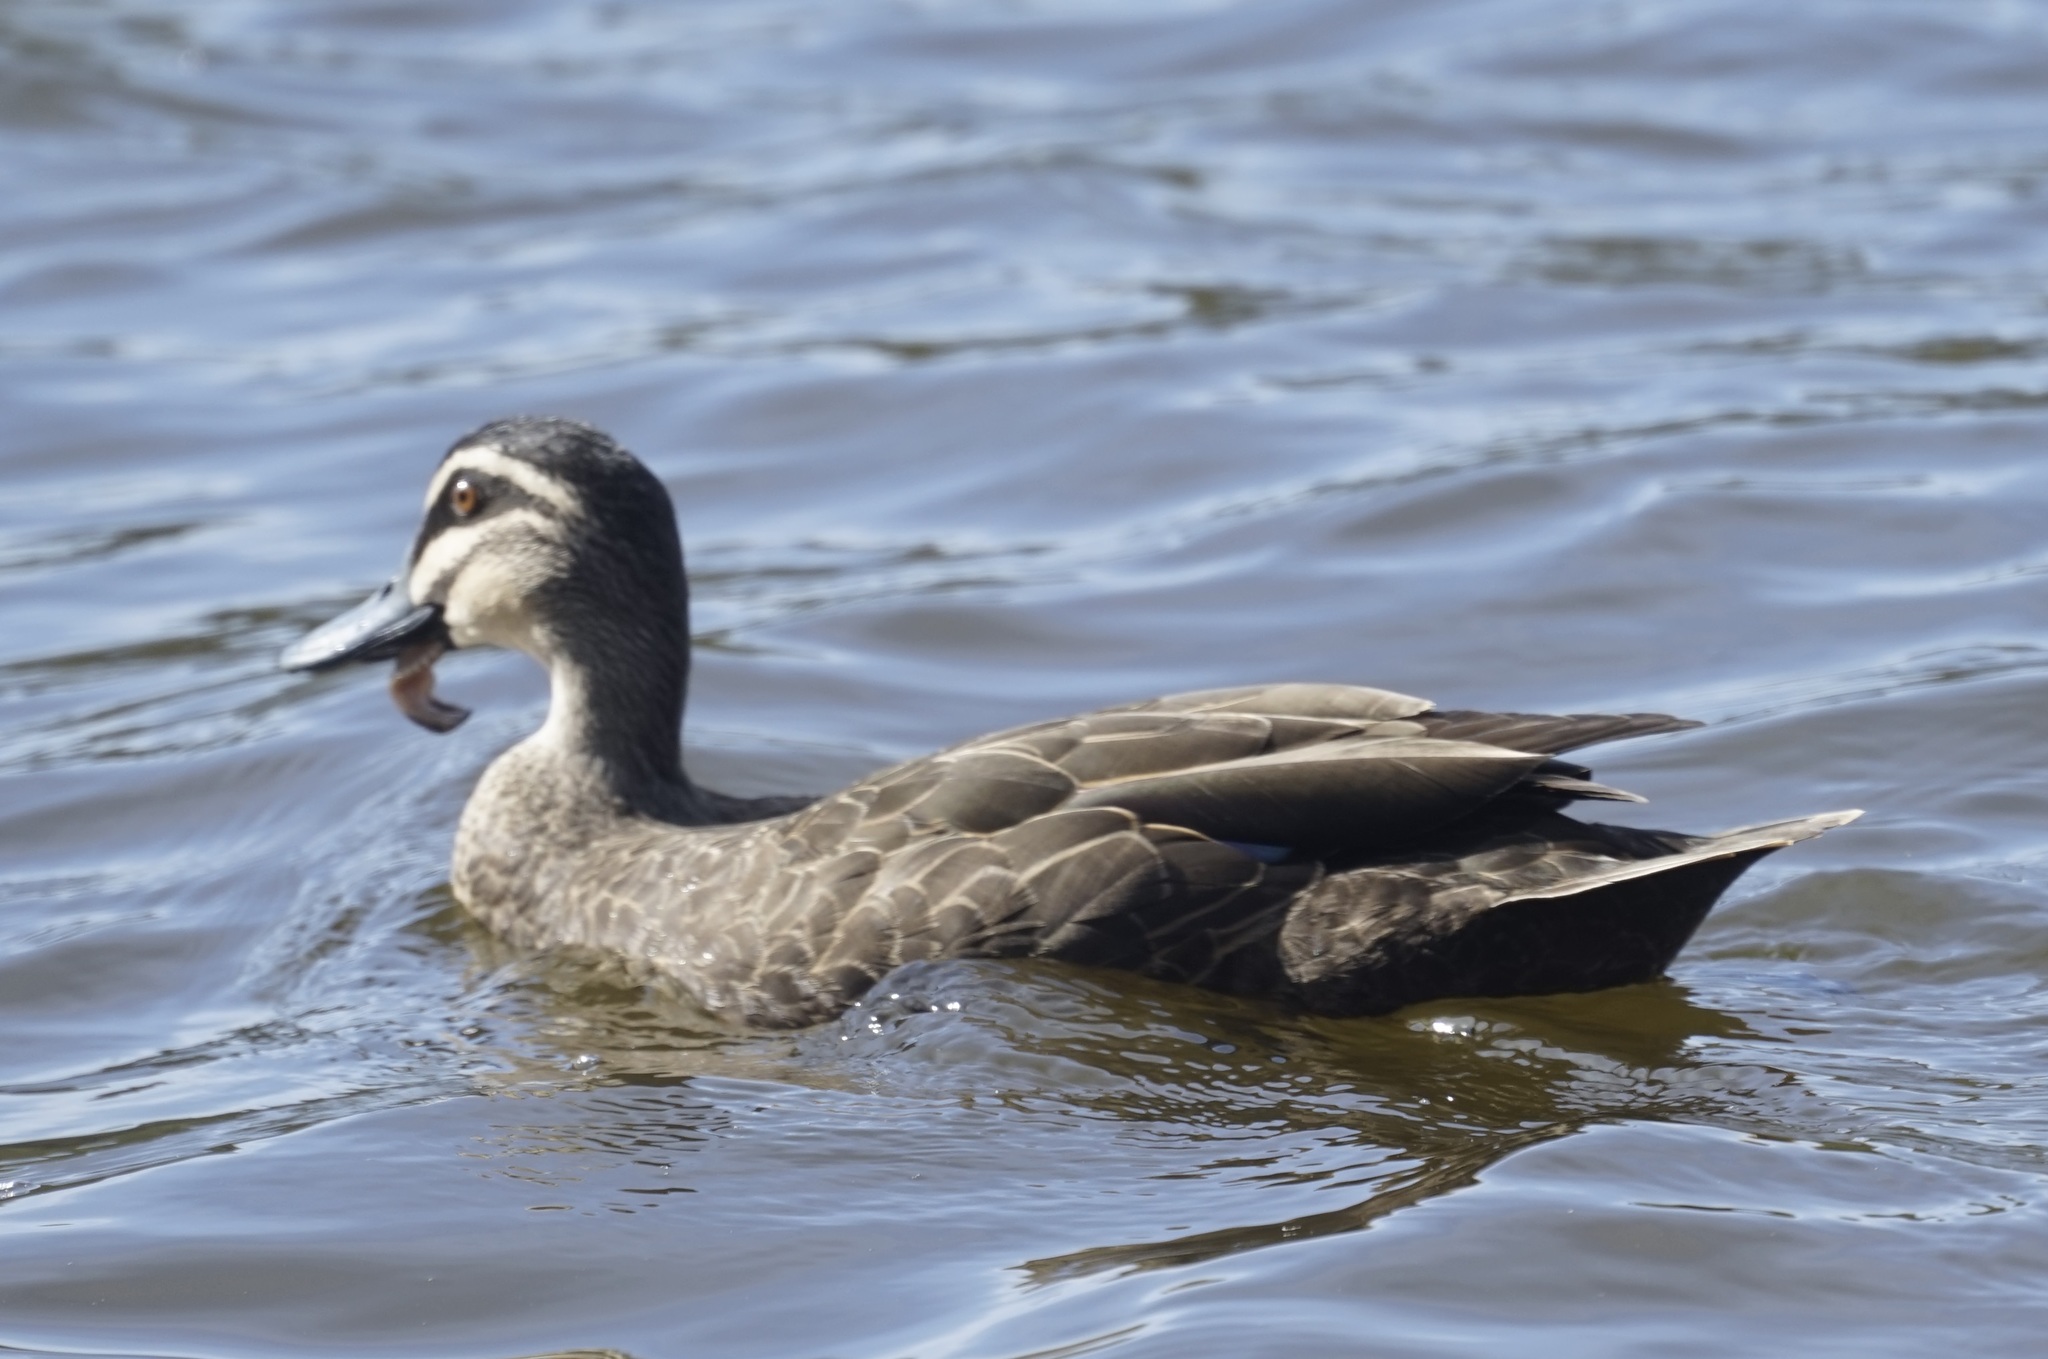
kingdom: Animalia
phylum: Chordata
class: Aves
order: Anseriformes
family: Anatidae
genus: Anas
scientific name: Anas superciliosa
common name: Pacific black duck
